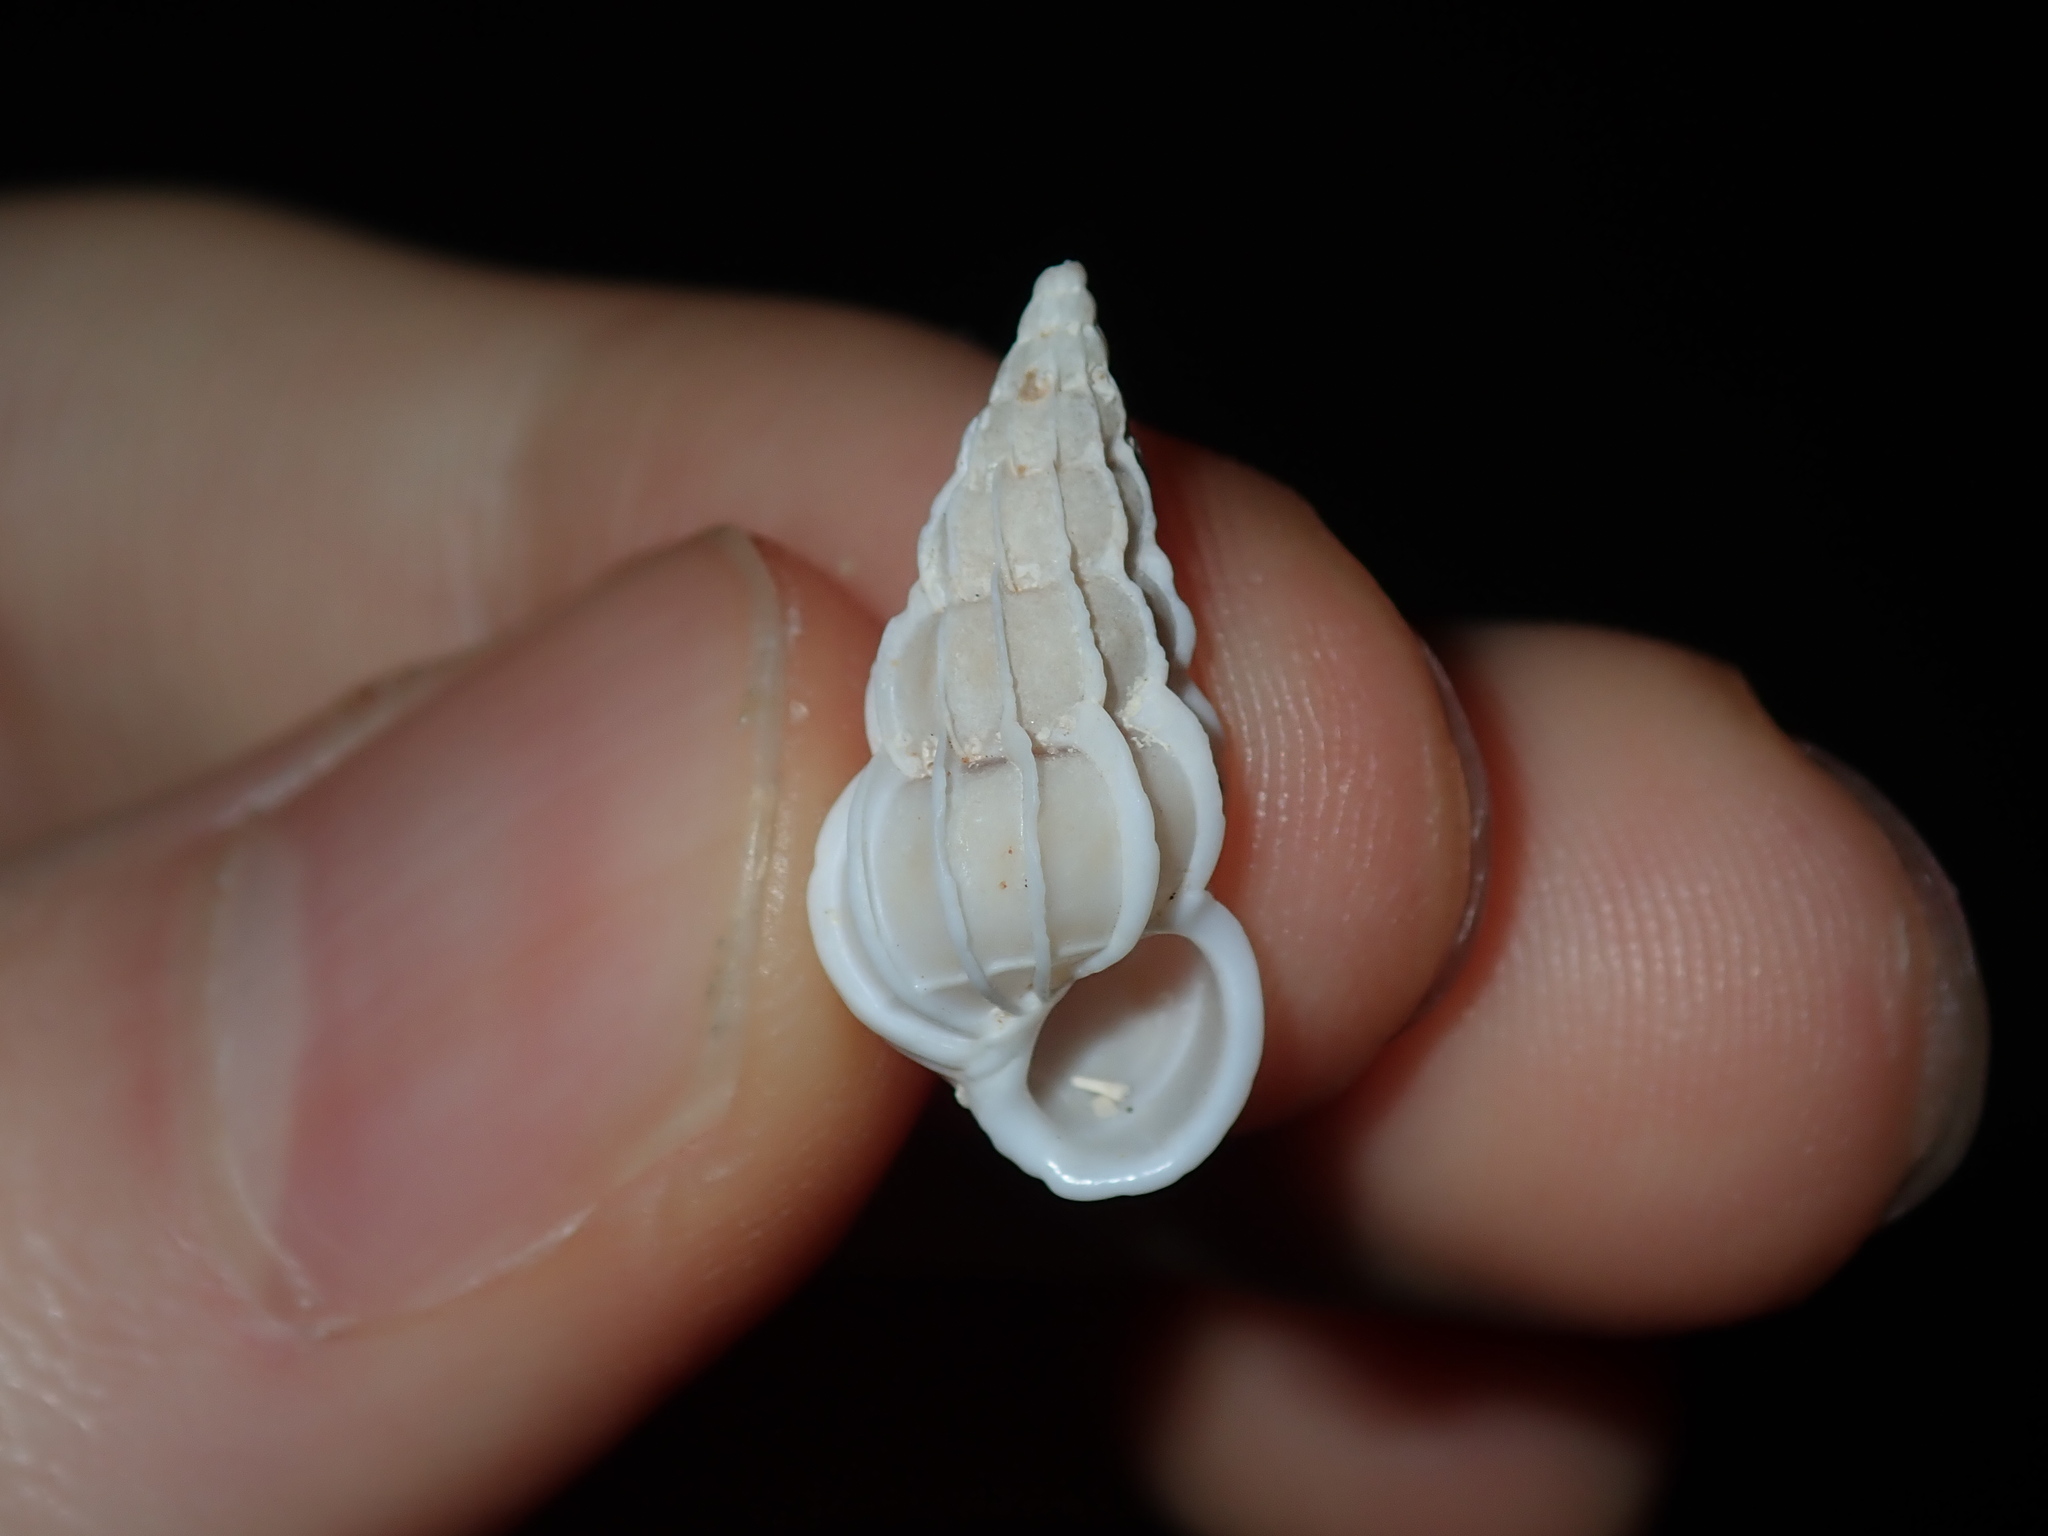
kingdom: Animalia
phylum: Mollusca
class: Gastropoda
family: Epitoniidae
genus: Gyroscala
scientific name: Gyroscala commutata
